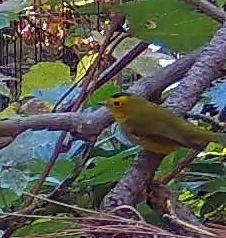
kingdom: Animalia
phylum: Chordata
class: Aves
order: Passeriformes
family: Parulidae
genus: Cardellina
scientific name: Cardellina pusilla
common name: Wilson's warbler
